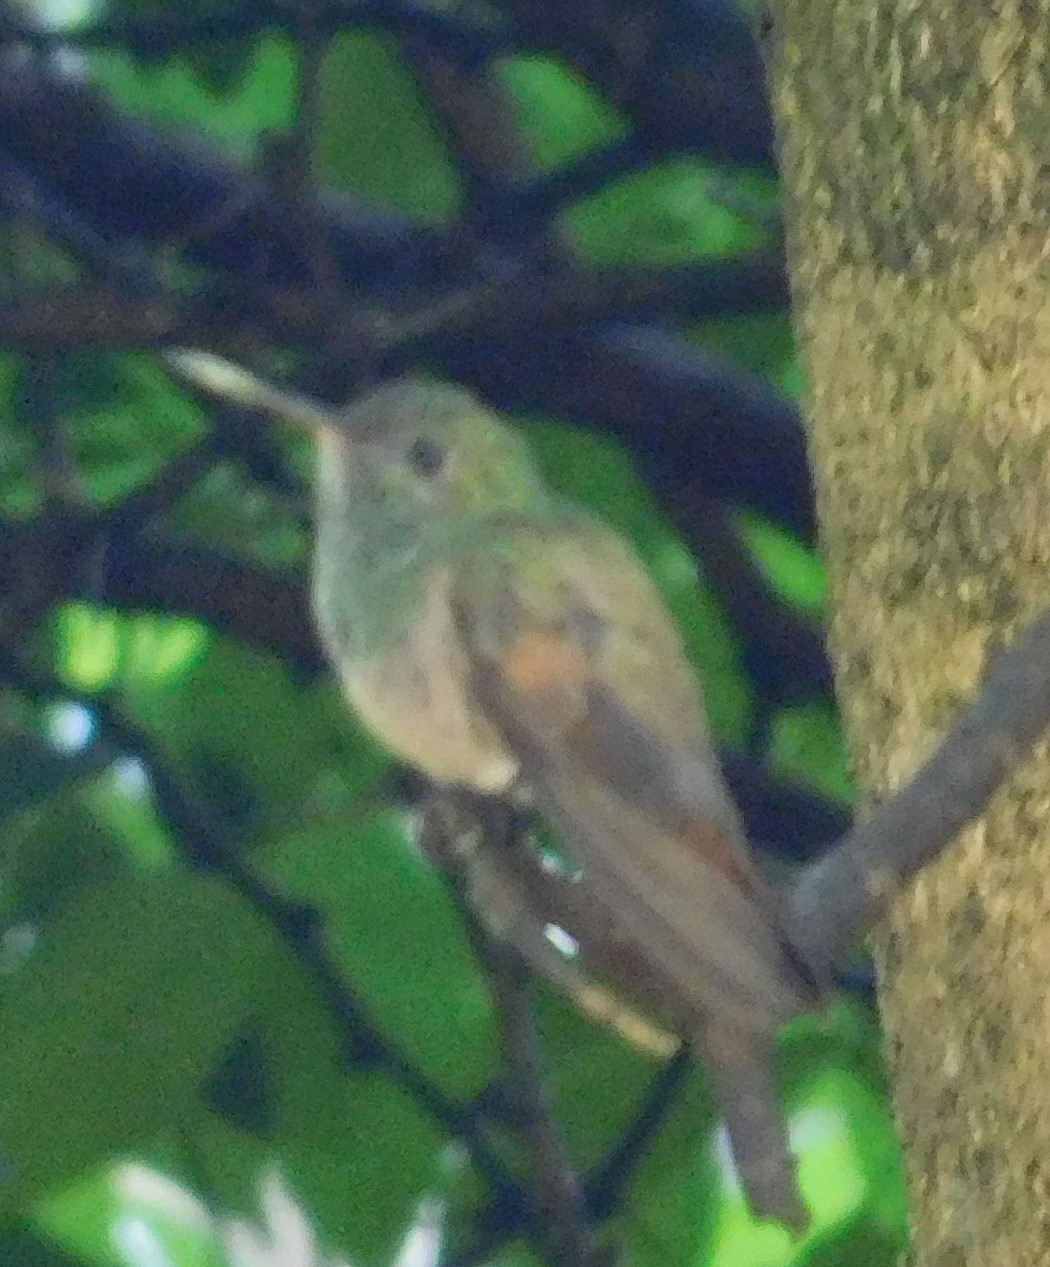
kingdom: Animalia
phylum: Chordata
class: Aves
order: Apodiformes
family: Trochilidae
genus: Saucerottia
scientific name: Saucerottia beryllina
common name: Berylline hummingbird
